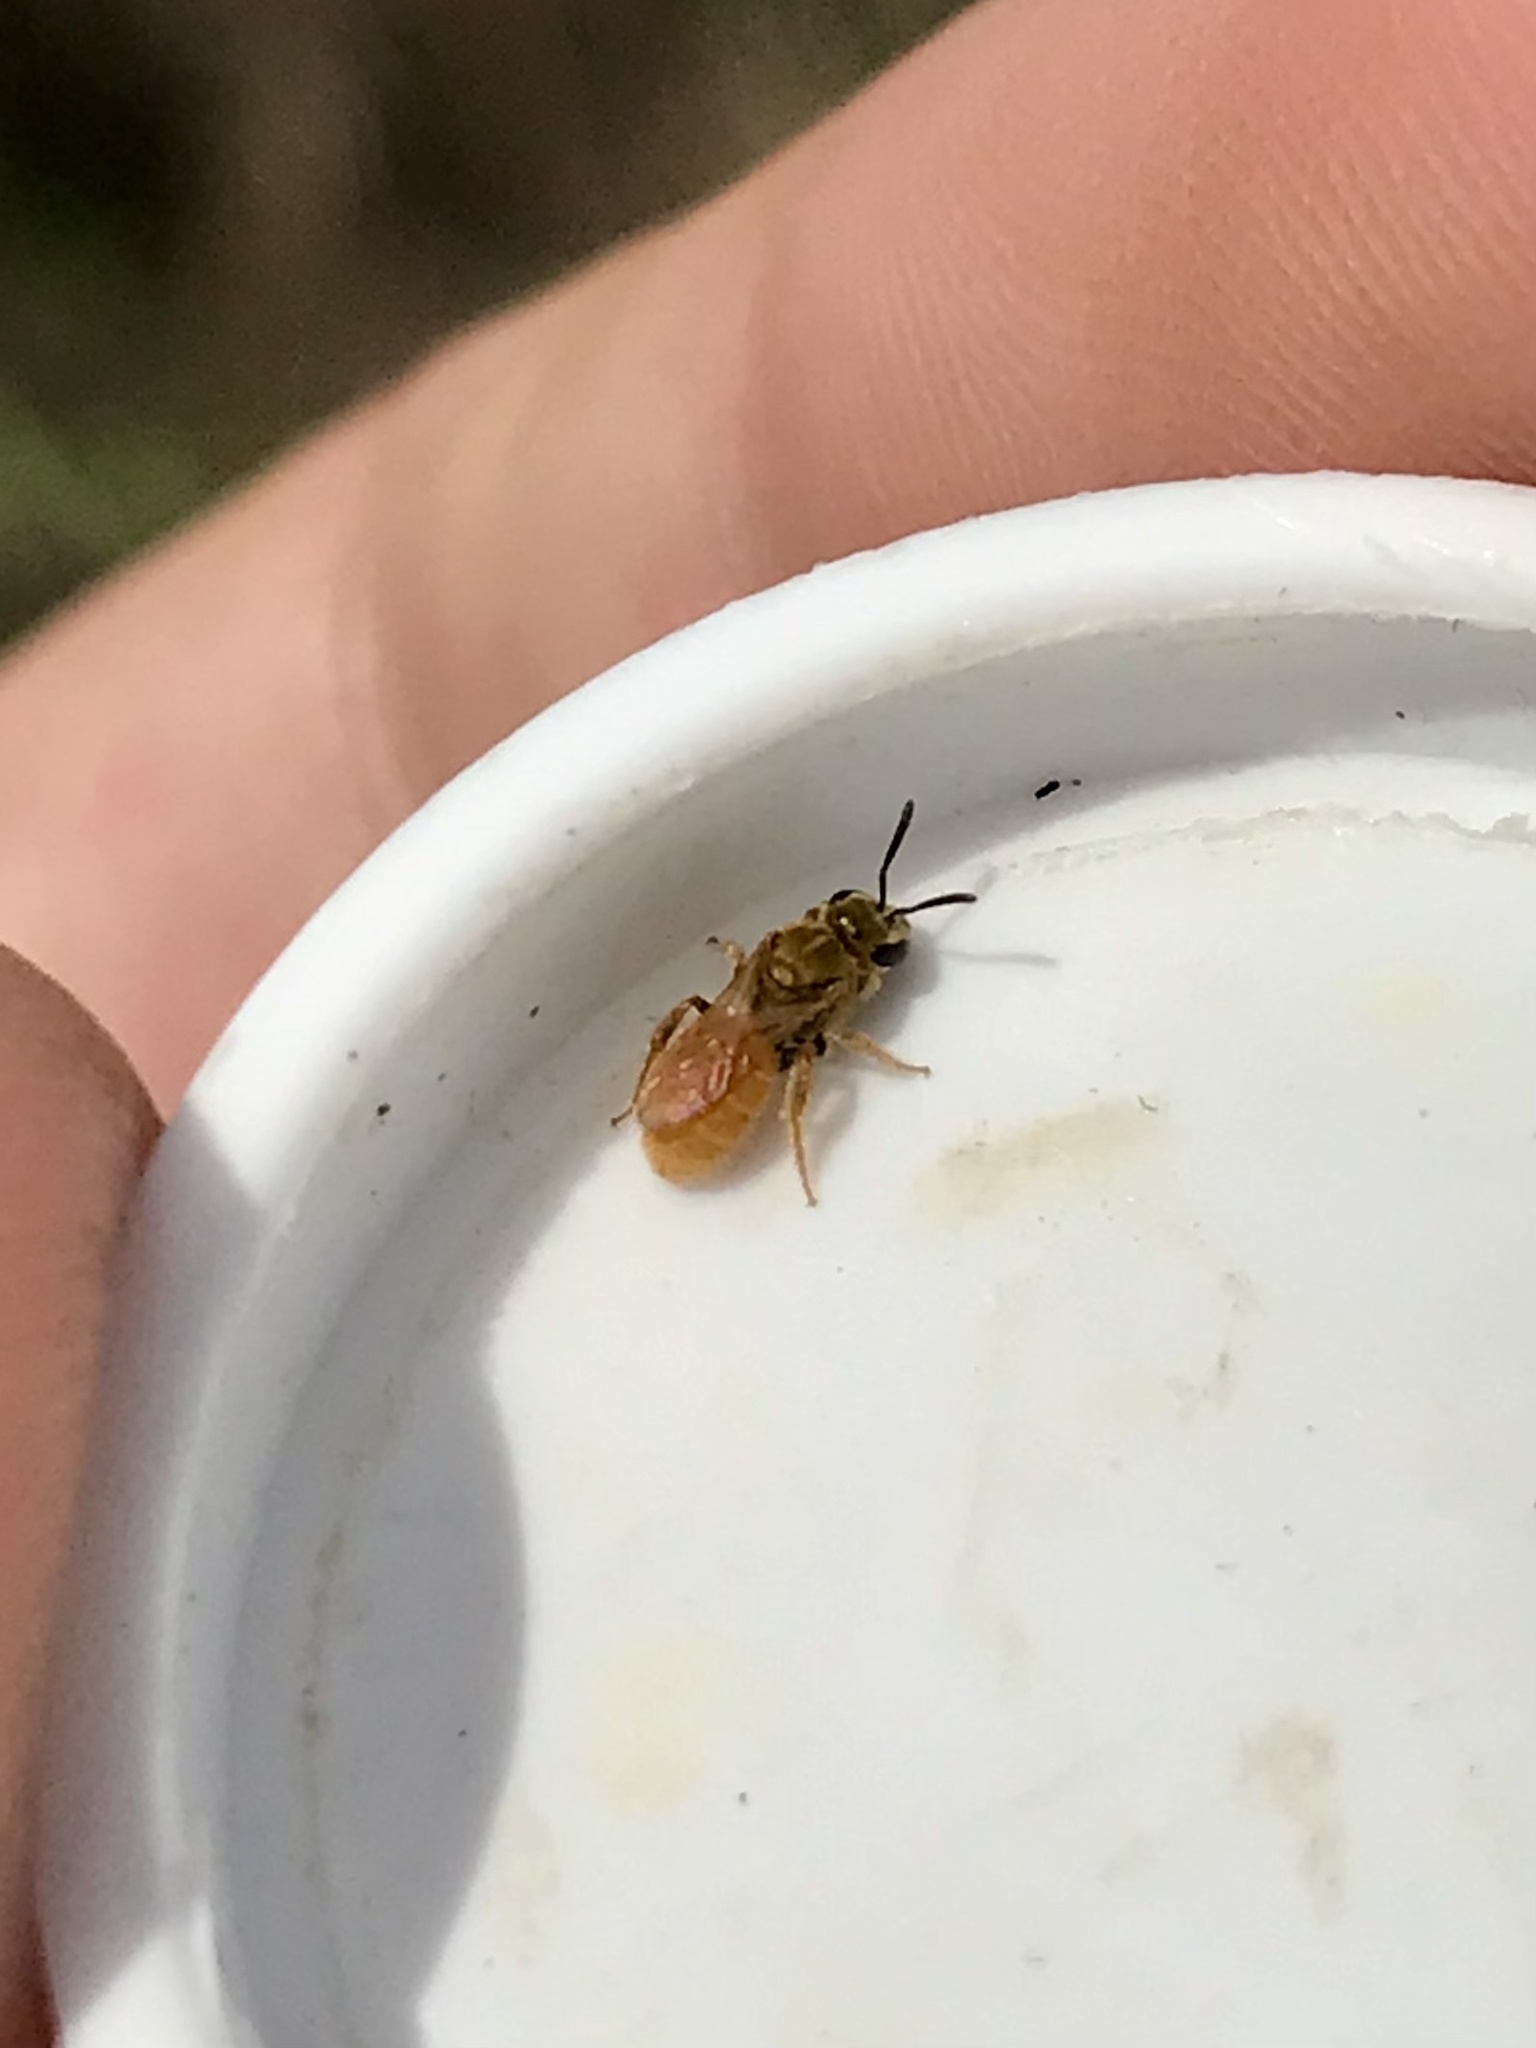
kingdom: Animalia
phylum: Arthropoda
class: Insecta
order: Hymenoptera
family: Halictidae
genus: Lasioglossum
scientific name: Lasioglossum vierecki
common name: Viereck's sweat bee
